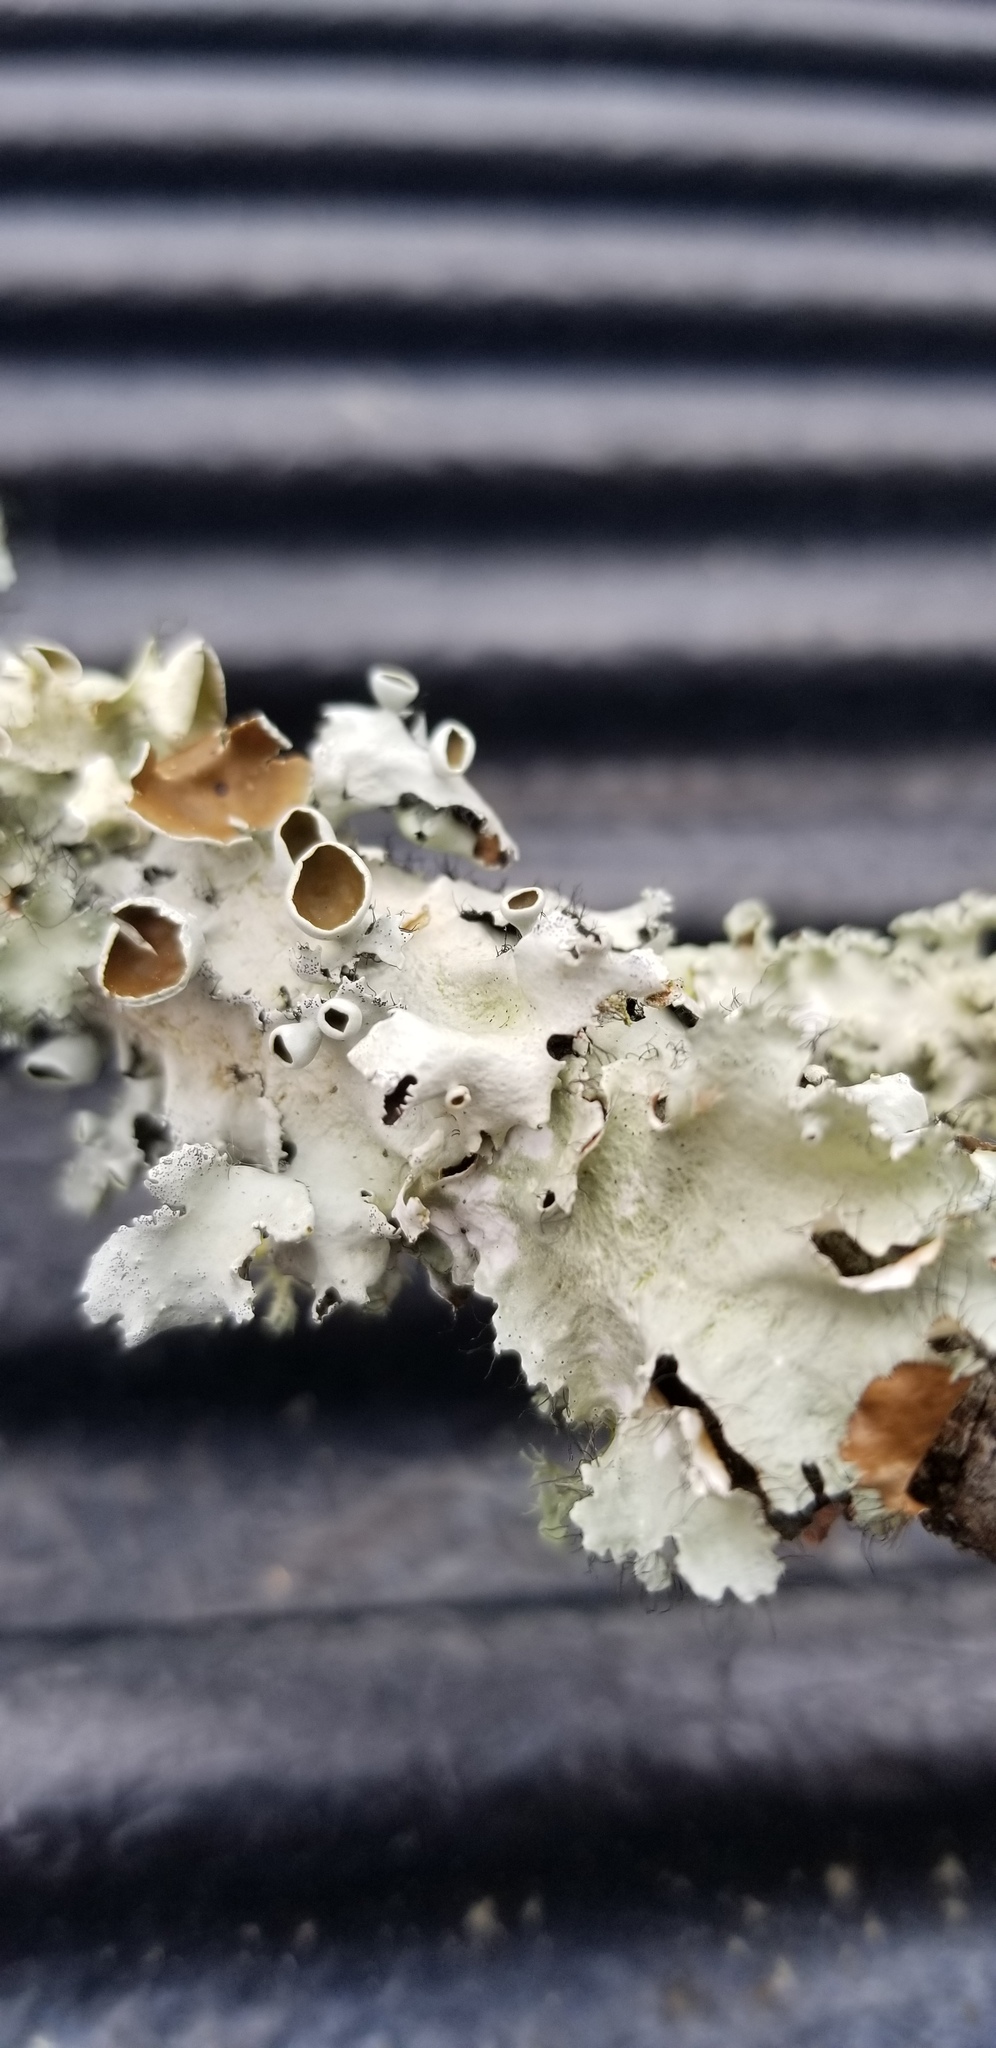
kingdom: Fungi
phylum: Ascomycota
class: Lecanoromycetes
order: Lecanorales
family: Parmeliaceae
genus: Parmotrema
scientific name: Parmotrema submarginale
